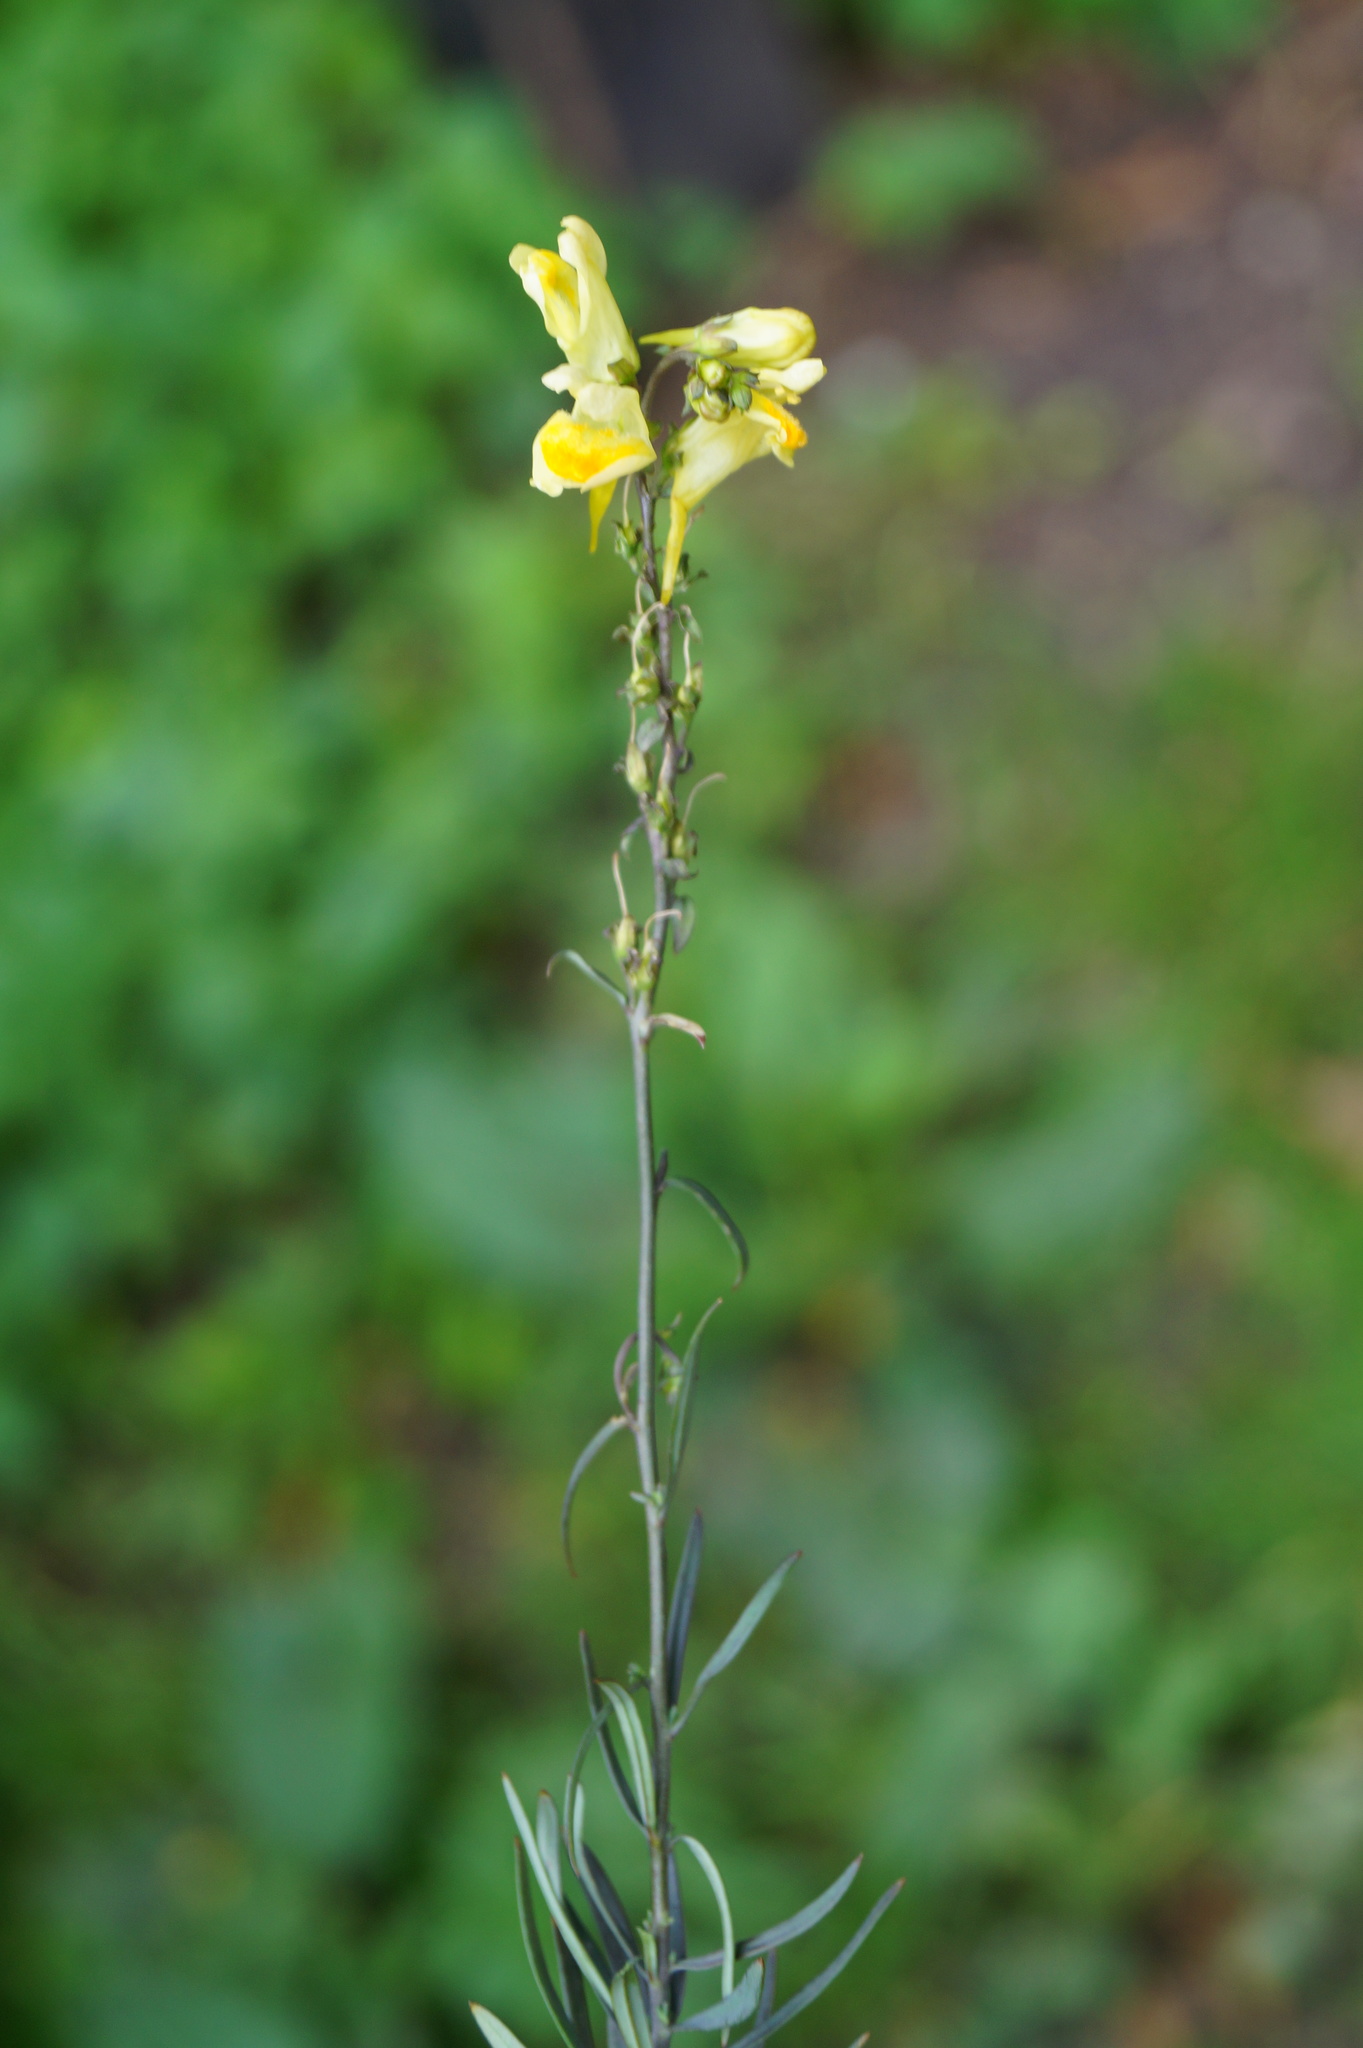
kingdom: Plantae
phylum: Tracheophyta
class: Magnoliopsida
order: Lamiales
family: Plantaginaceae
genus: Linaria
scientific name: Linaria vulgaris
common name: Butter and eggs
